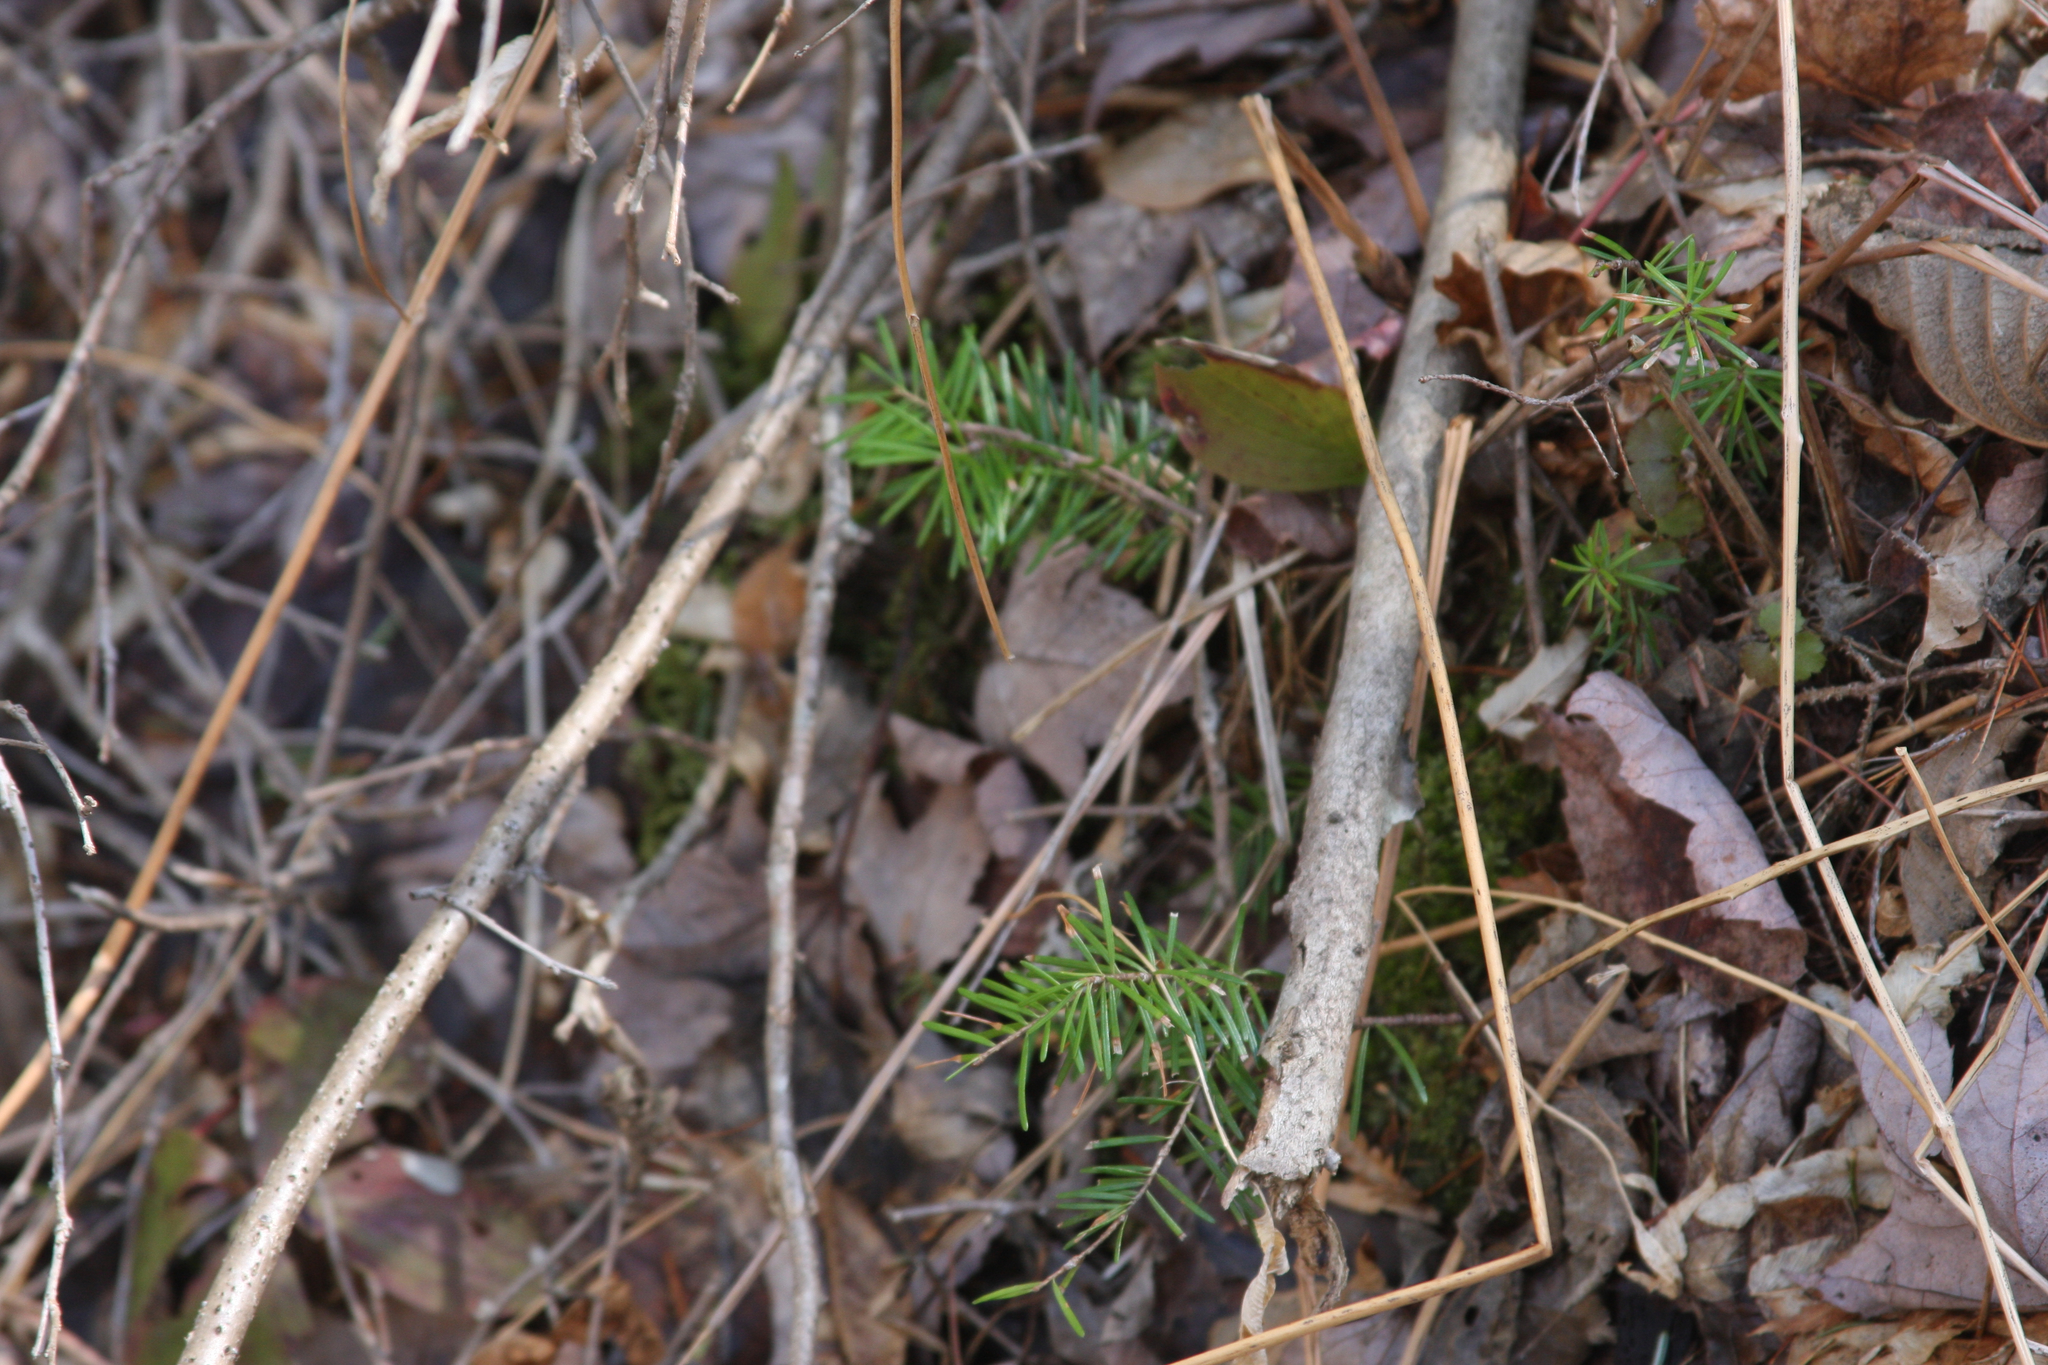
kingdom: Plantae
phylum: Tracheophyta
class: Pinopsida
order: Pinales
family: Pinaceae
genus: Abies
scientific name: Abies balsamea
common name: Balsam fir
